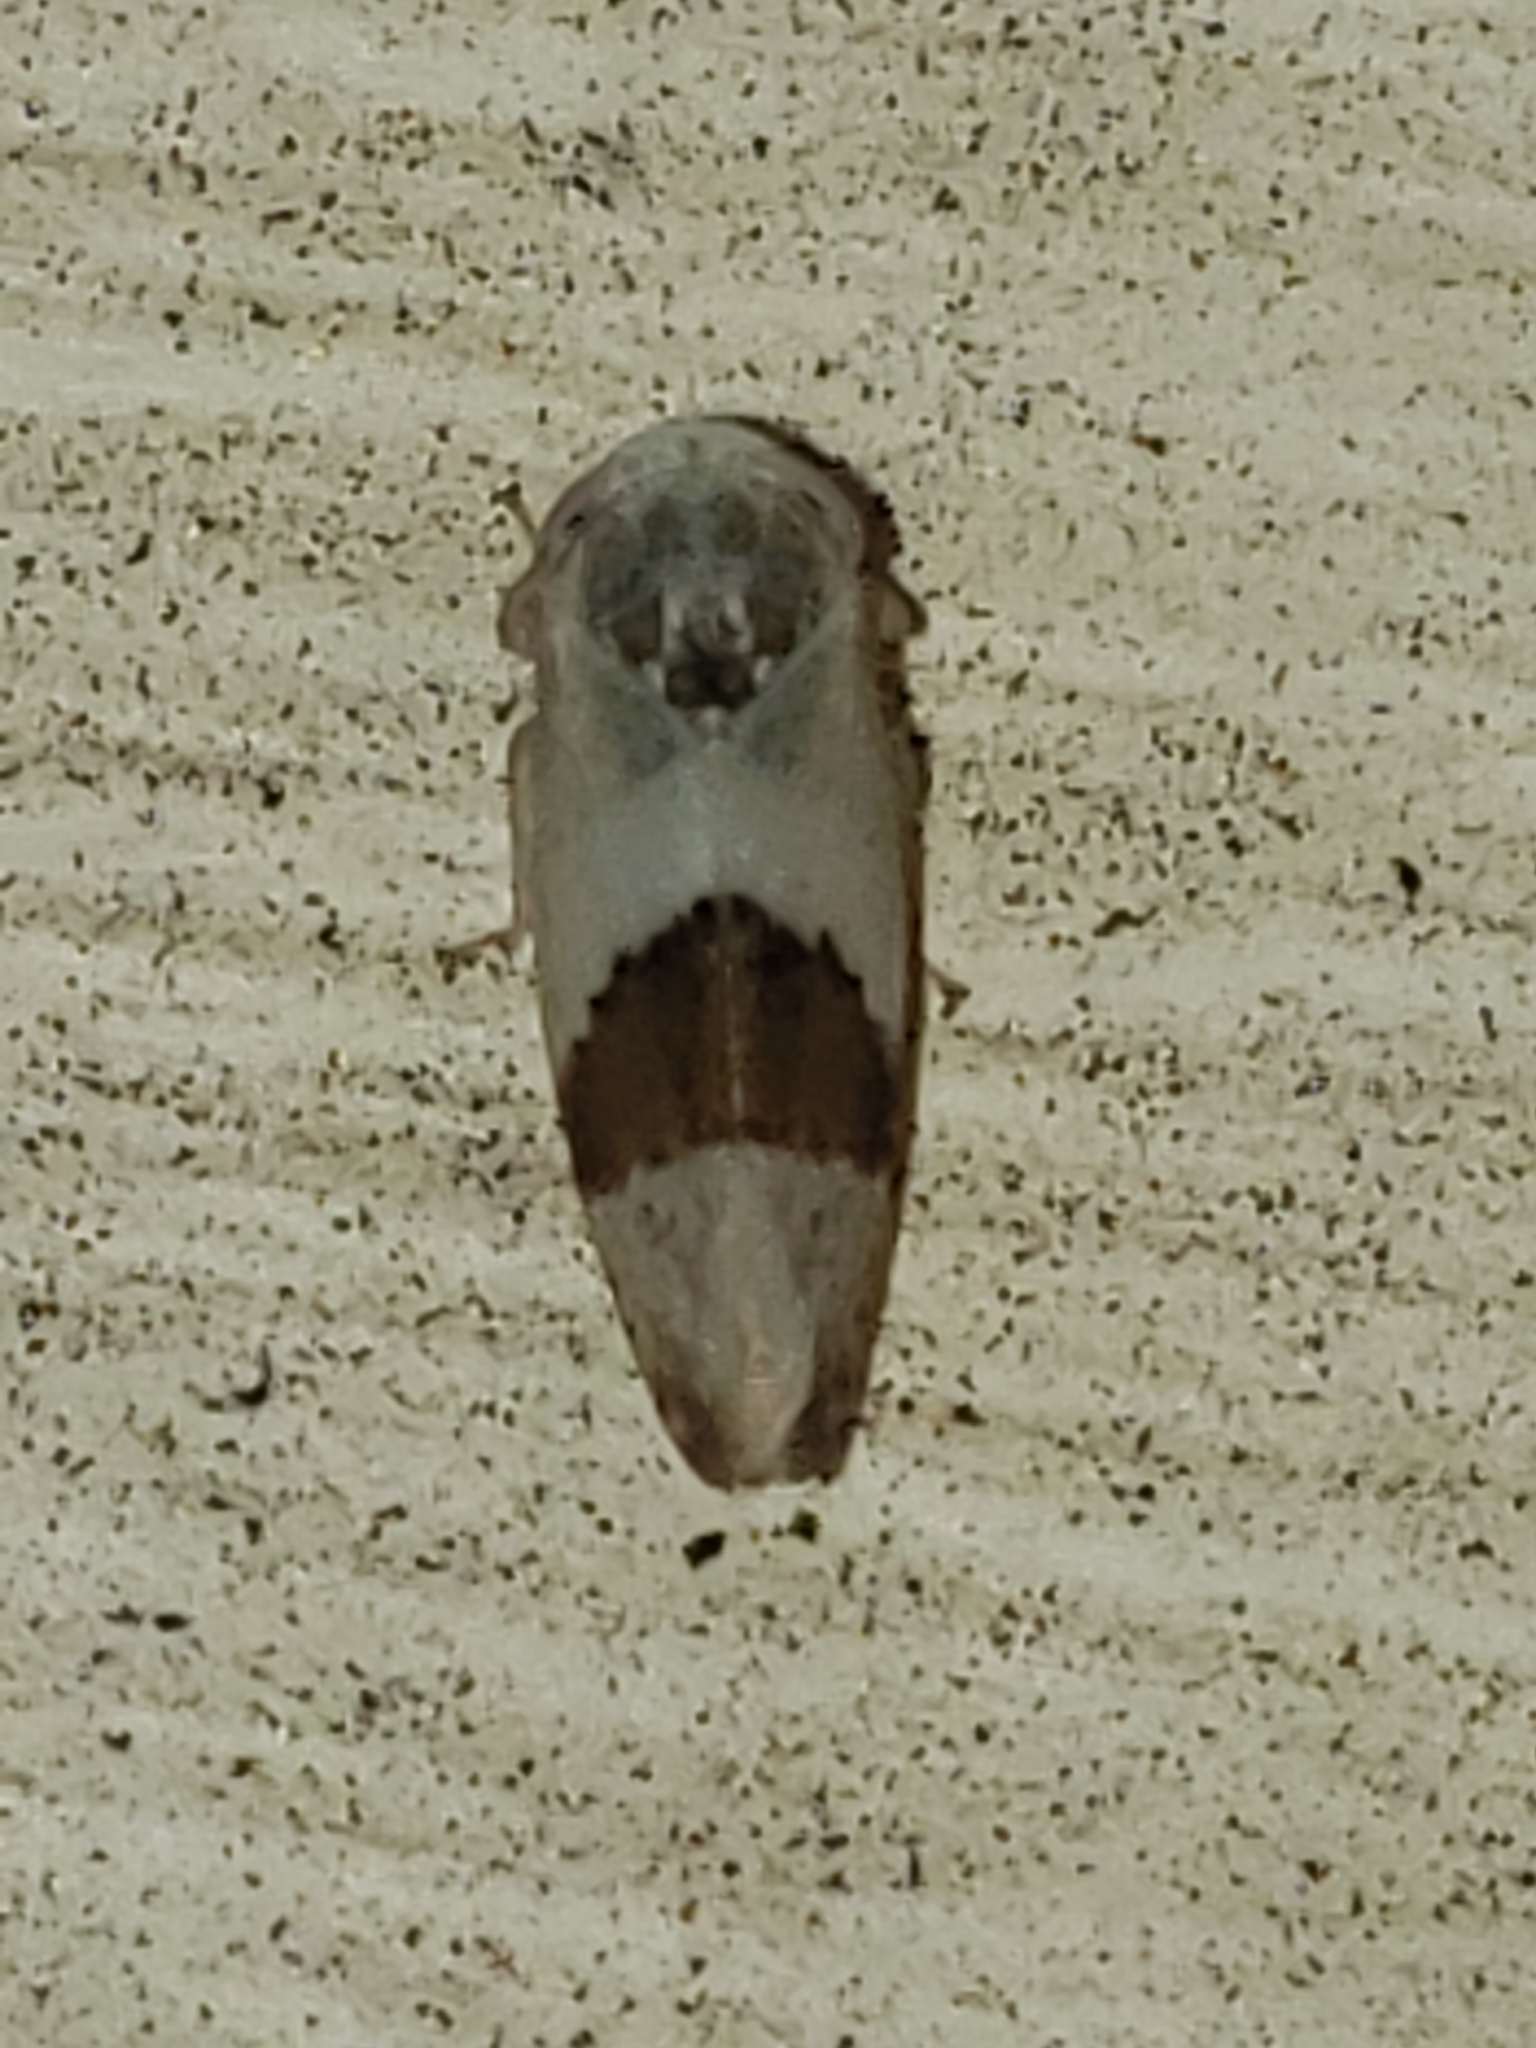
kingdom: Animalia
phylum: Arthropoda
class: Insecta
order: Hemiptera
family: Cicadellidae
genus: Norvellina
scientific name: Norvellina seminuda
